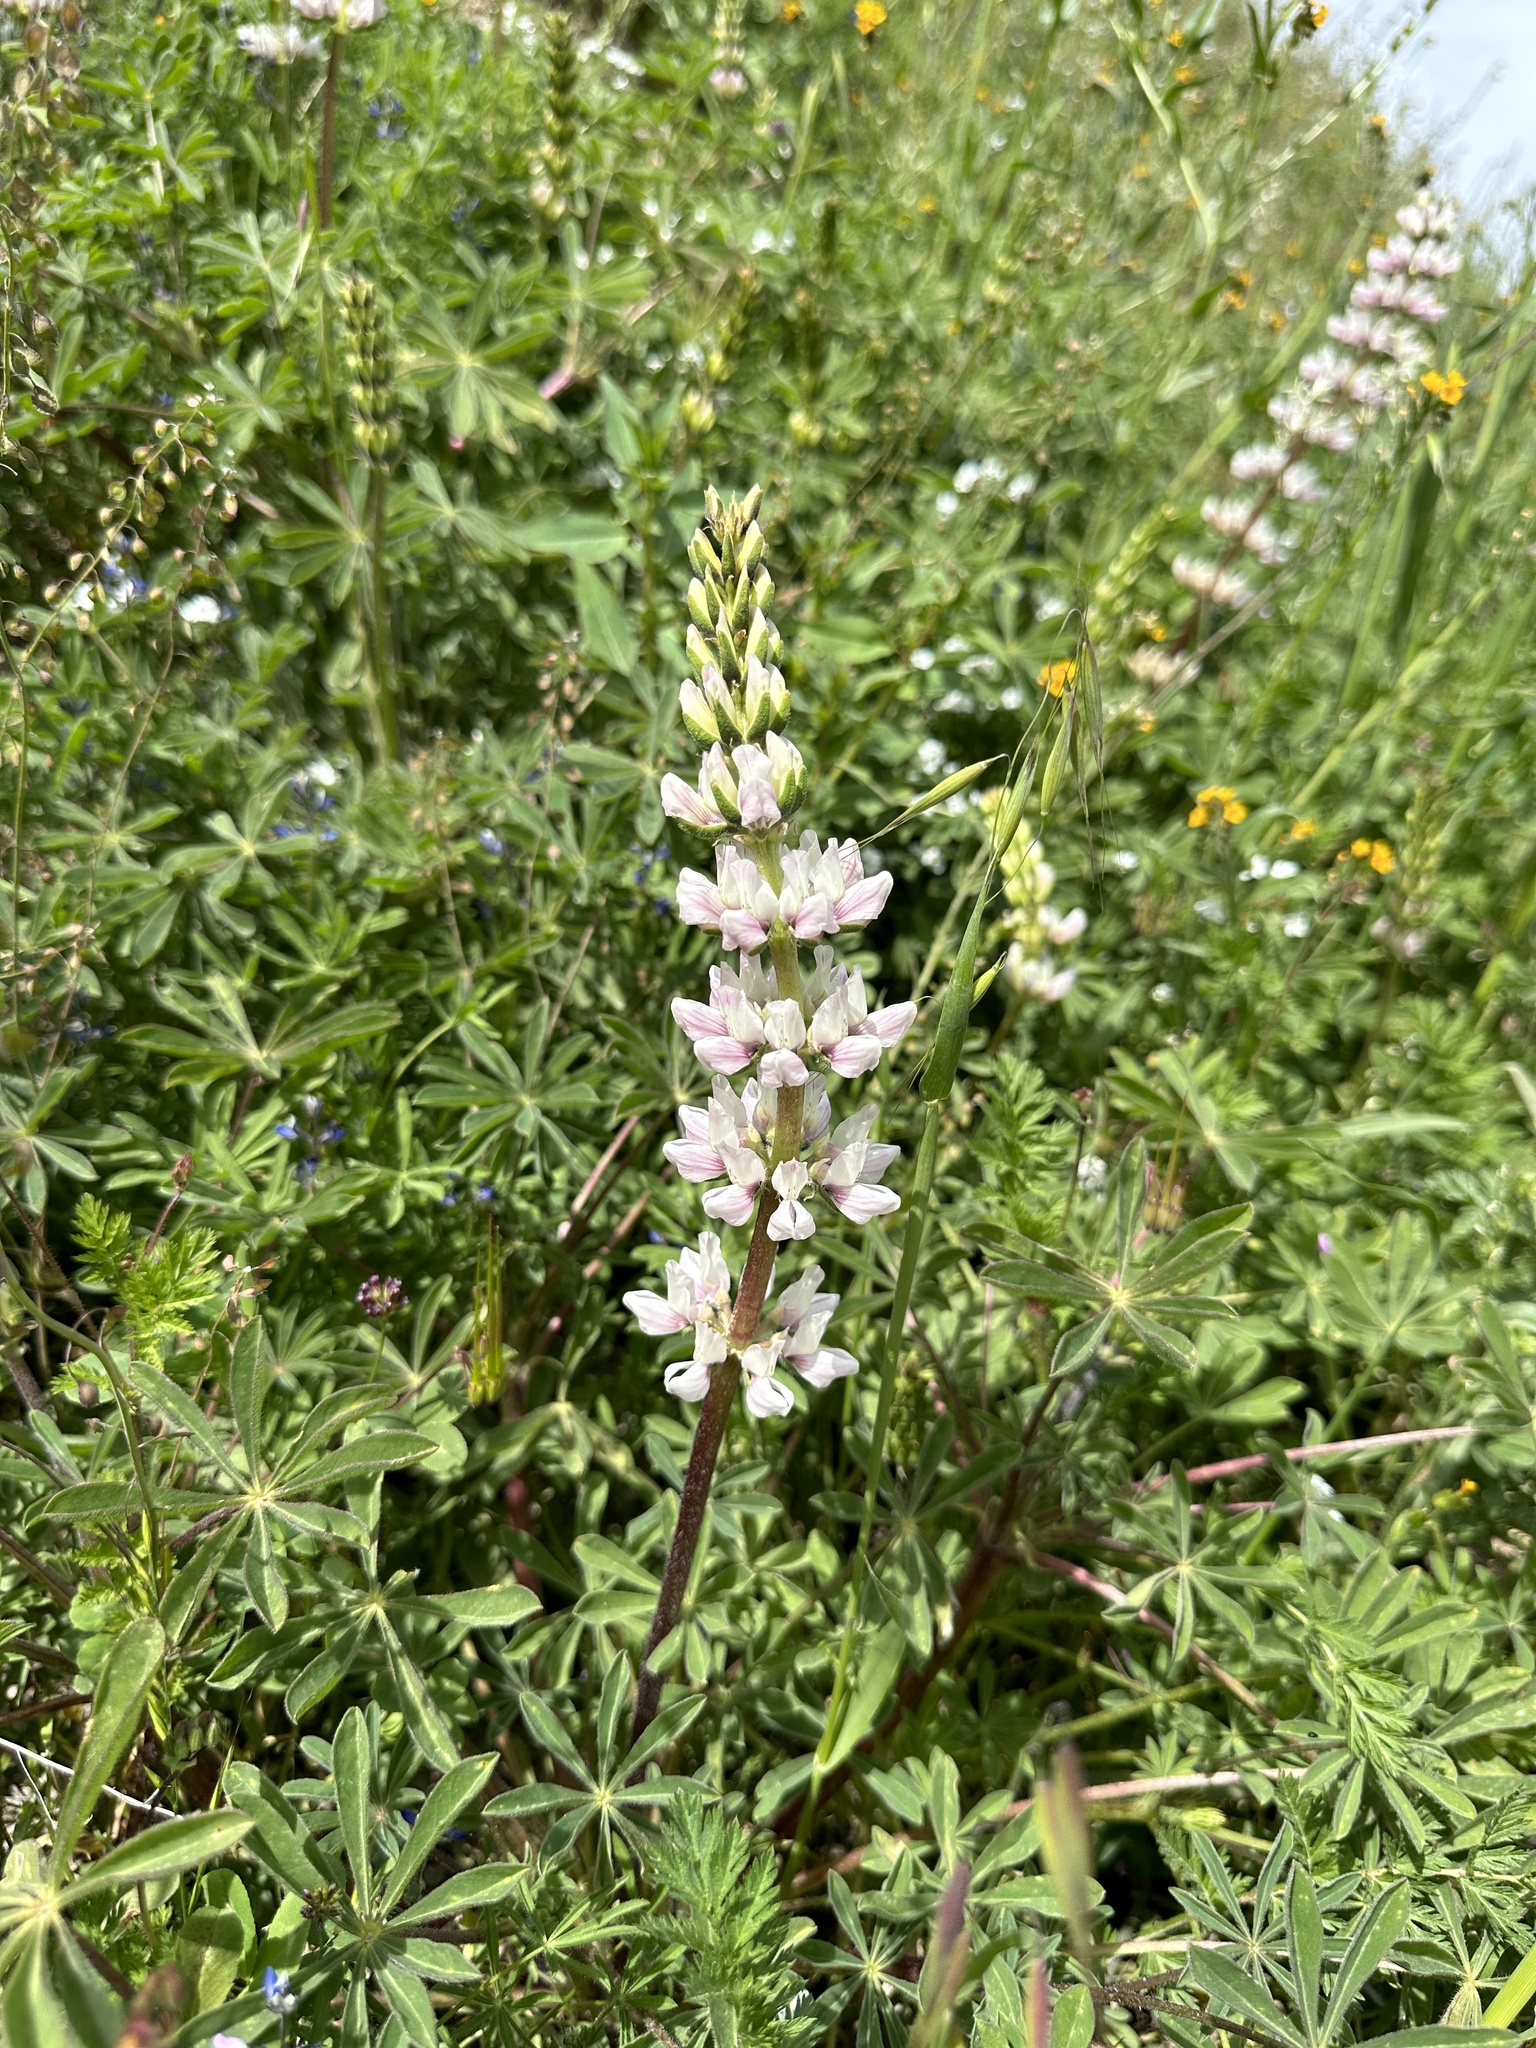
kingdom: Plantae
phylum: Tracheophyta
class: Magnoliopsida
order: Fabales
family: Fabaceae
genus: Lupinus
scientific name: Lupinus microcarpus
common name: Chick lupine
